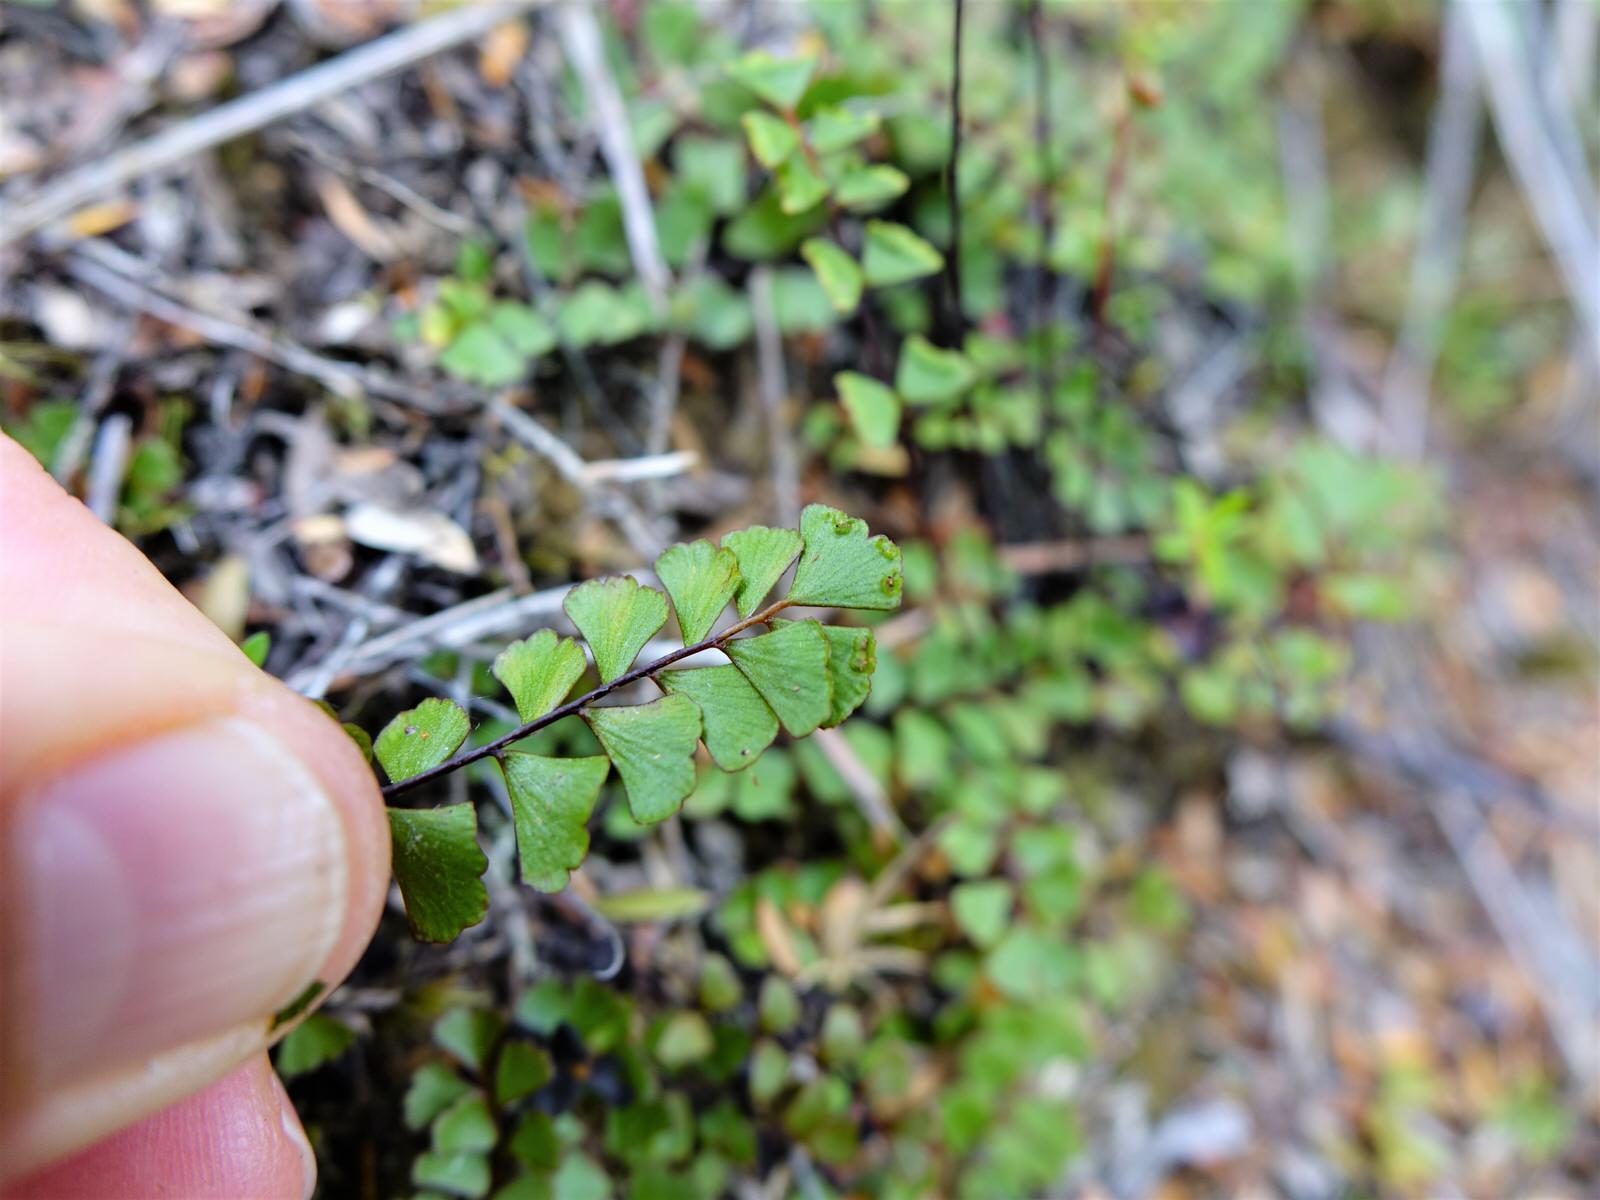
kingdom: Plantae
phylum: Tracheophyta
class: Polypodiopsida
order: Polypodiales
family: Lindsaeaceae
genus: Lindsaea
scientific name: Lindsaea linearis
